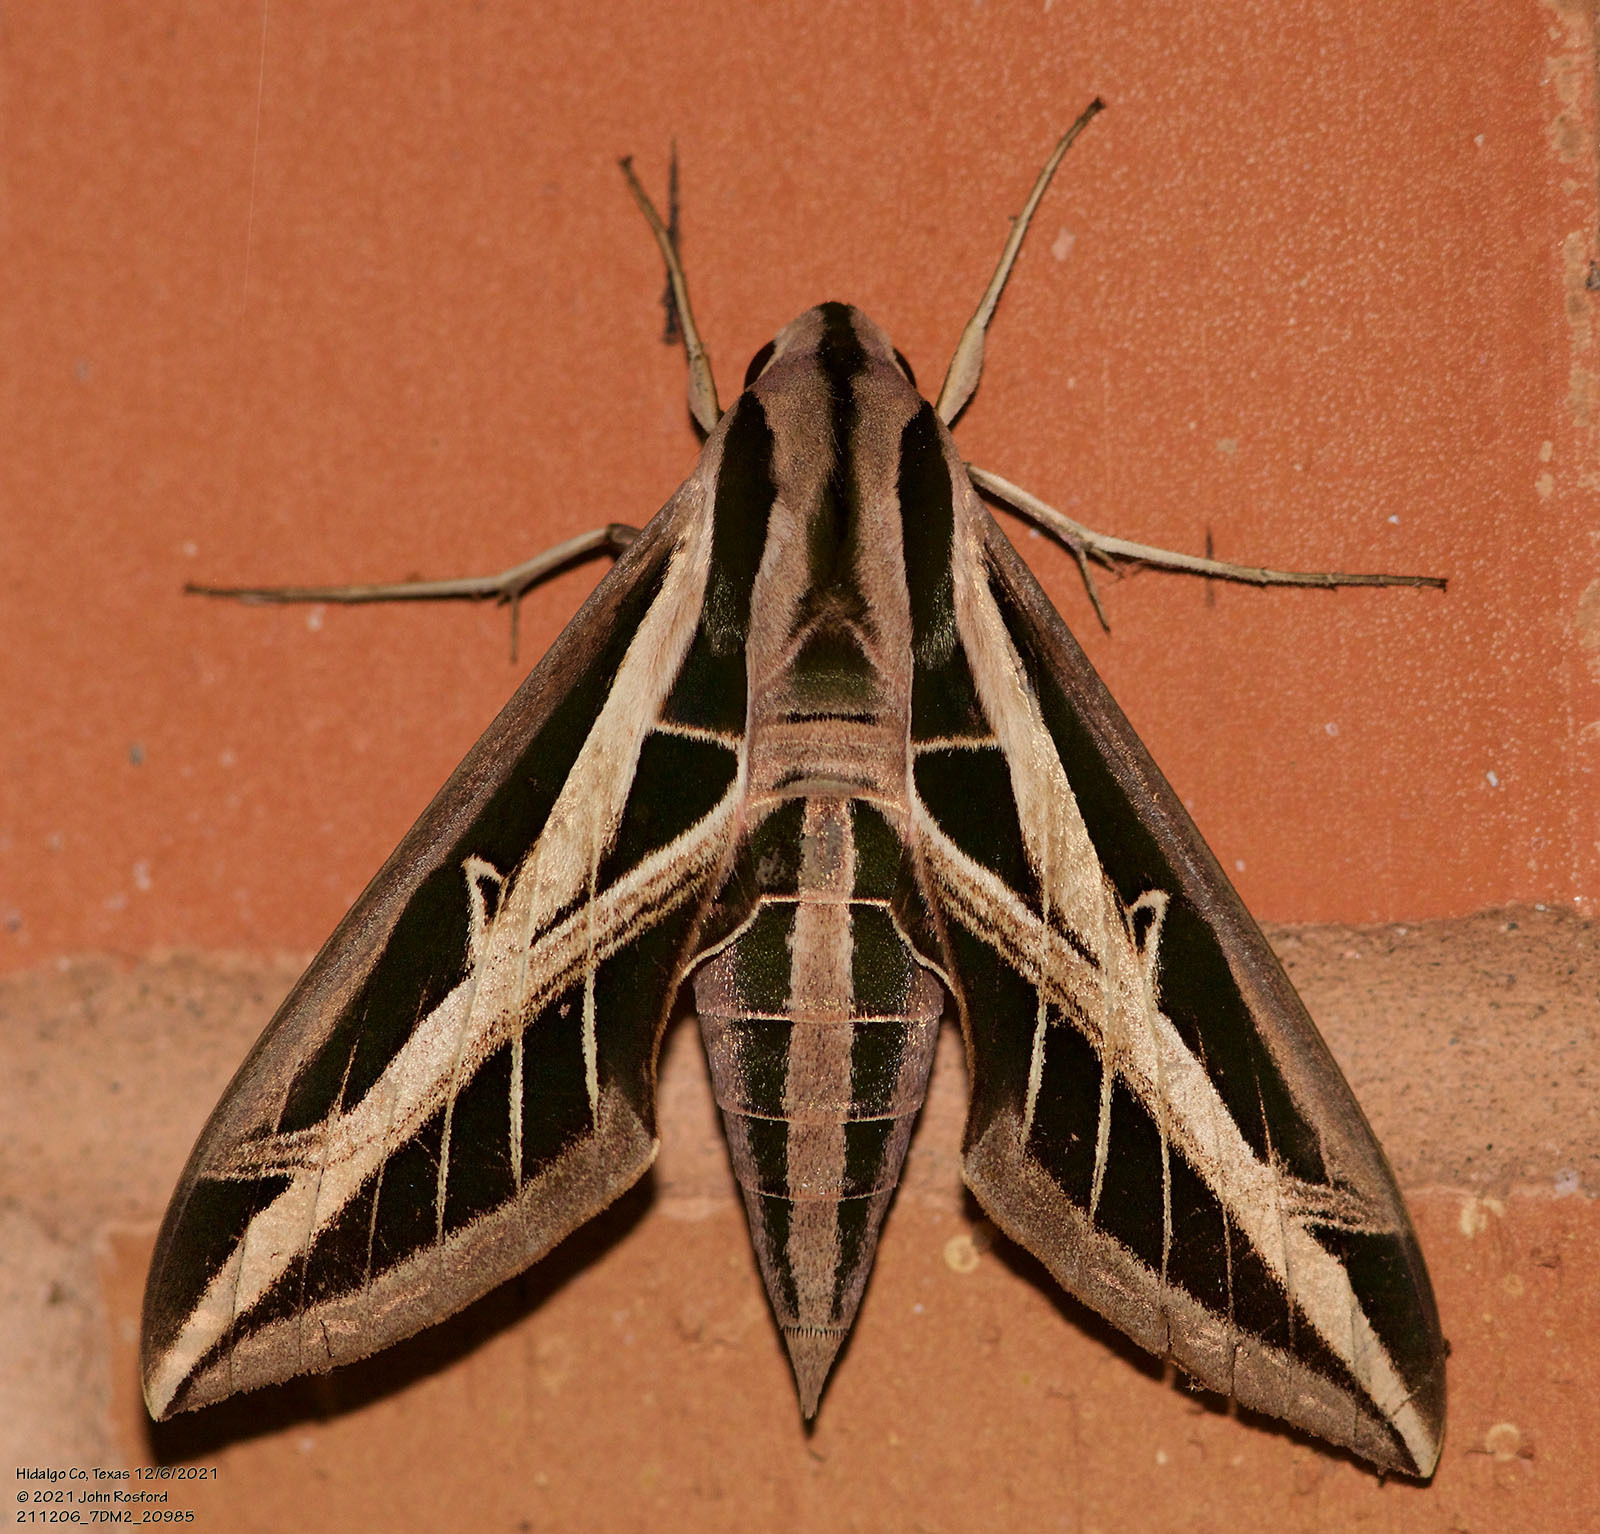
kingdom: Animalia
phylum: Arthropoda
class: Insecta
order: Lepidoptera
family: Sphingidae
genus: Eumorpha
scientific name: Eumorpha fasciatus
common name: Banded sphinx
